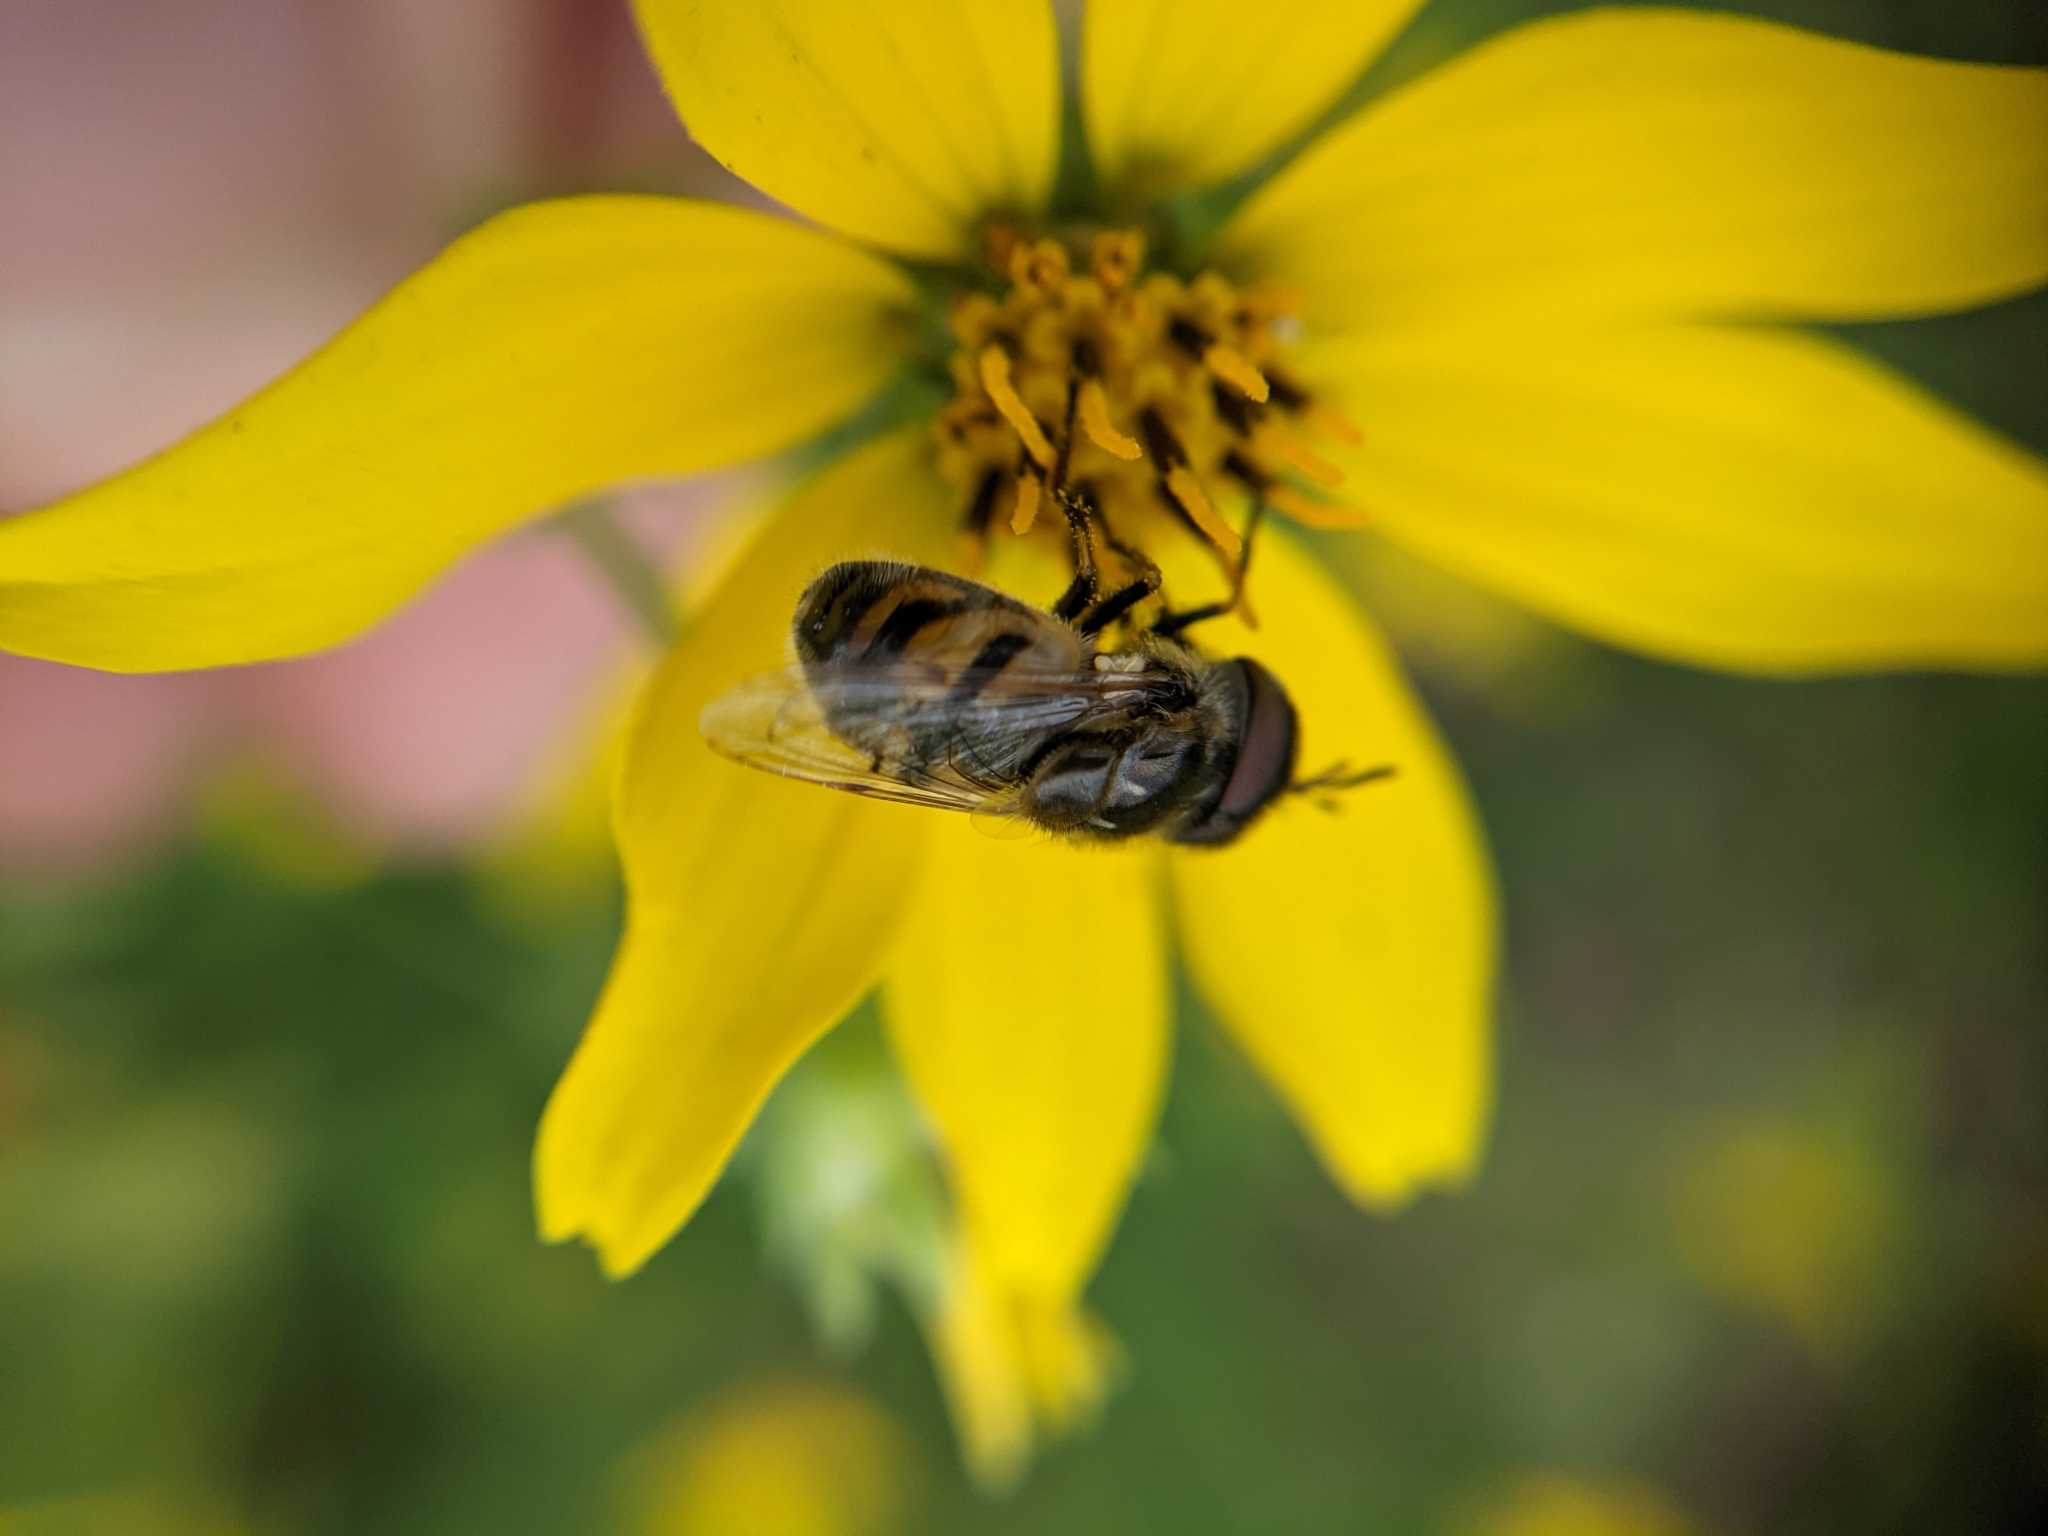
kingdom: Animalia
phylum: Arthropoda
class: Insecta
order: Diptera
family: Syrphidae
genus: Copestylum
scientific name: Copestylum marginatum
